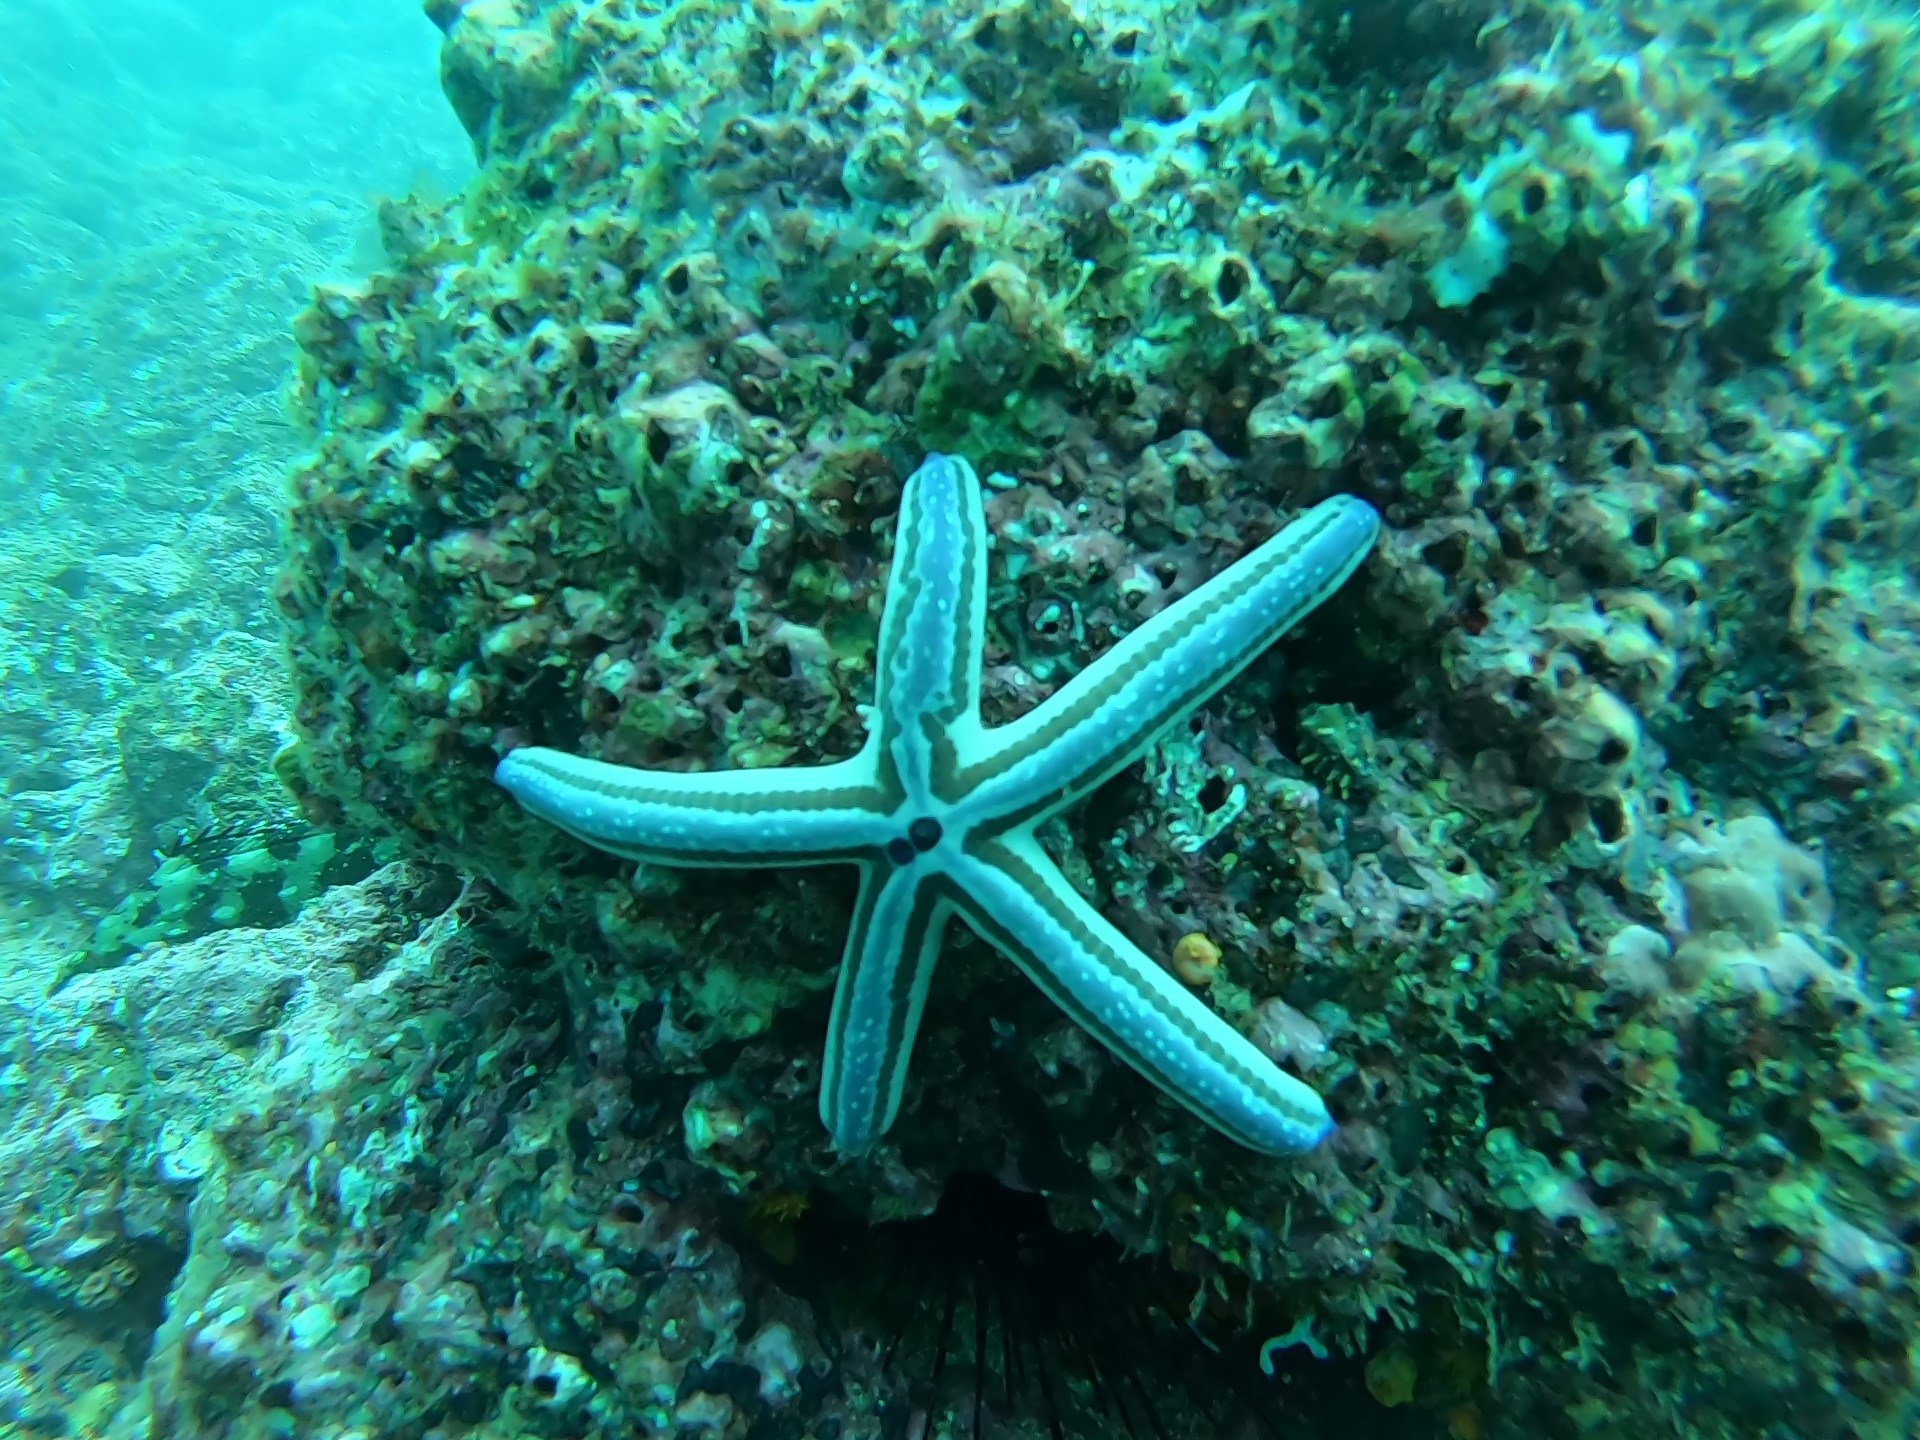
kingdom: Animalia
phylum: Echinodermata
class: Asteroidea
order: Valvatida
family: Ophidiasteridae
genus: Phataria
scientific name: Phataria unifascialis
